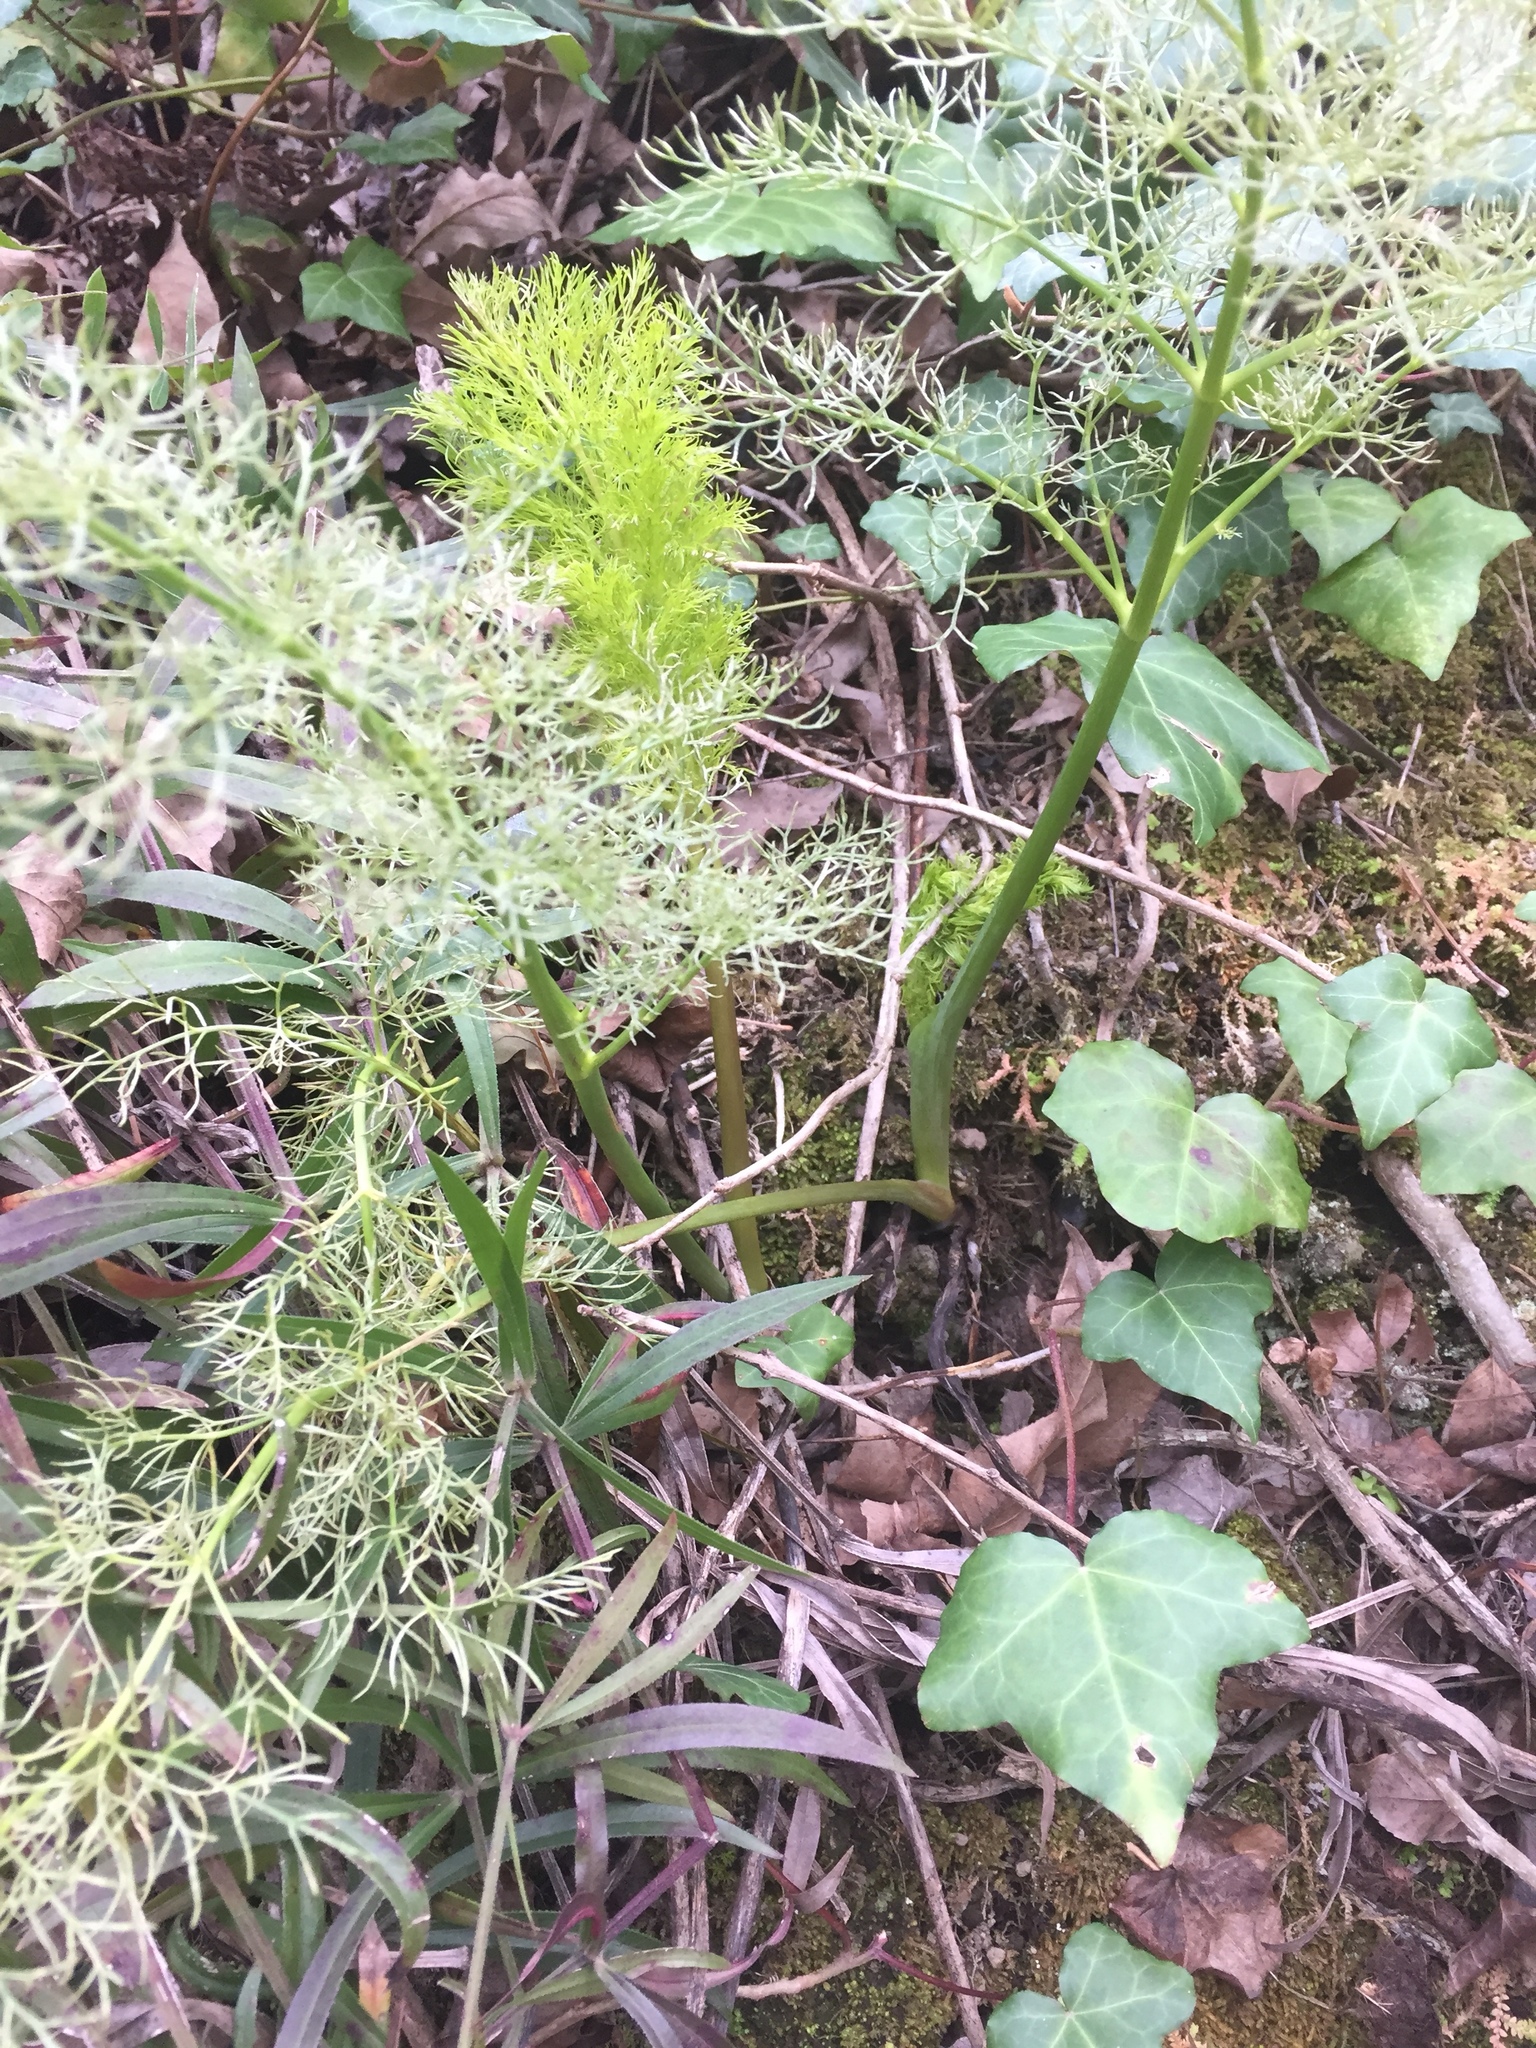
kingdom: Plantae
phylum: Tracheophyta
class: Magnoliopsida
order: Apiales
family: Apiaceae
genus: Foeniculum
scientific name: Foeniculum vulgare
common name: Fennel
